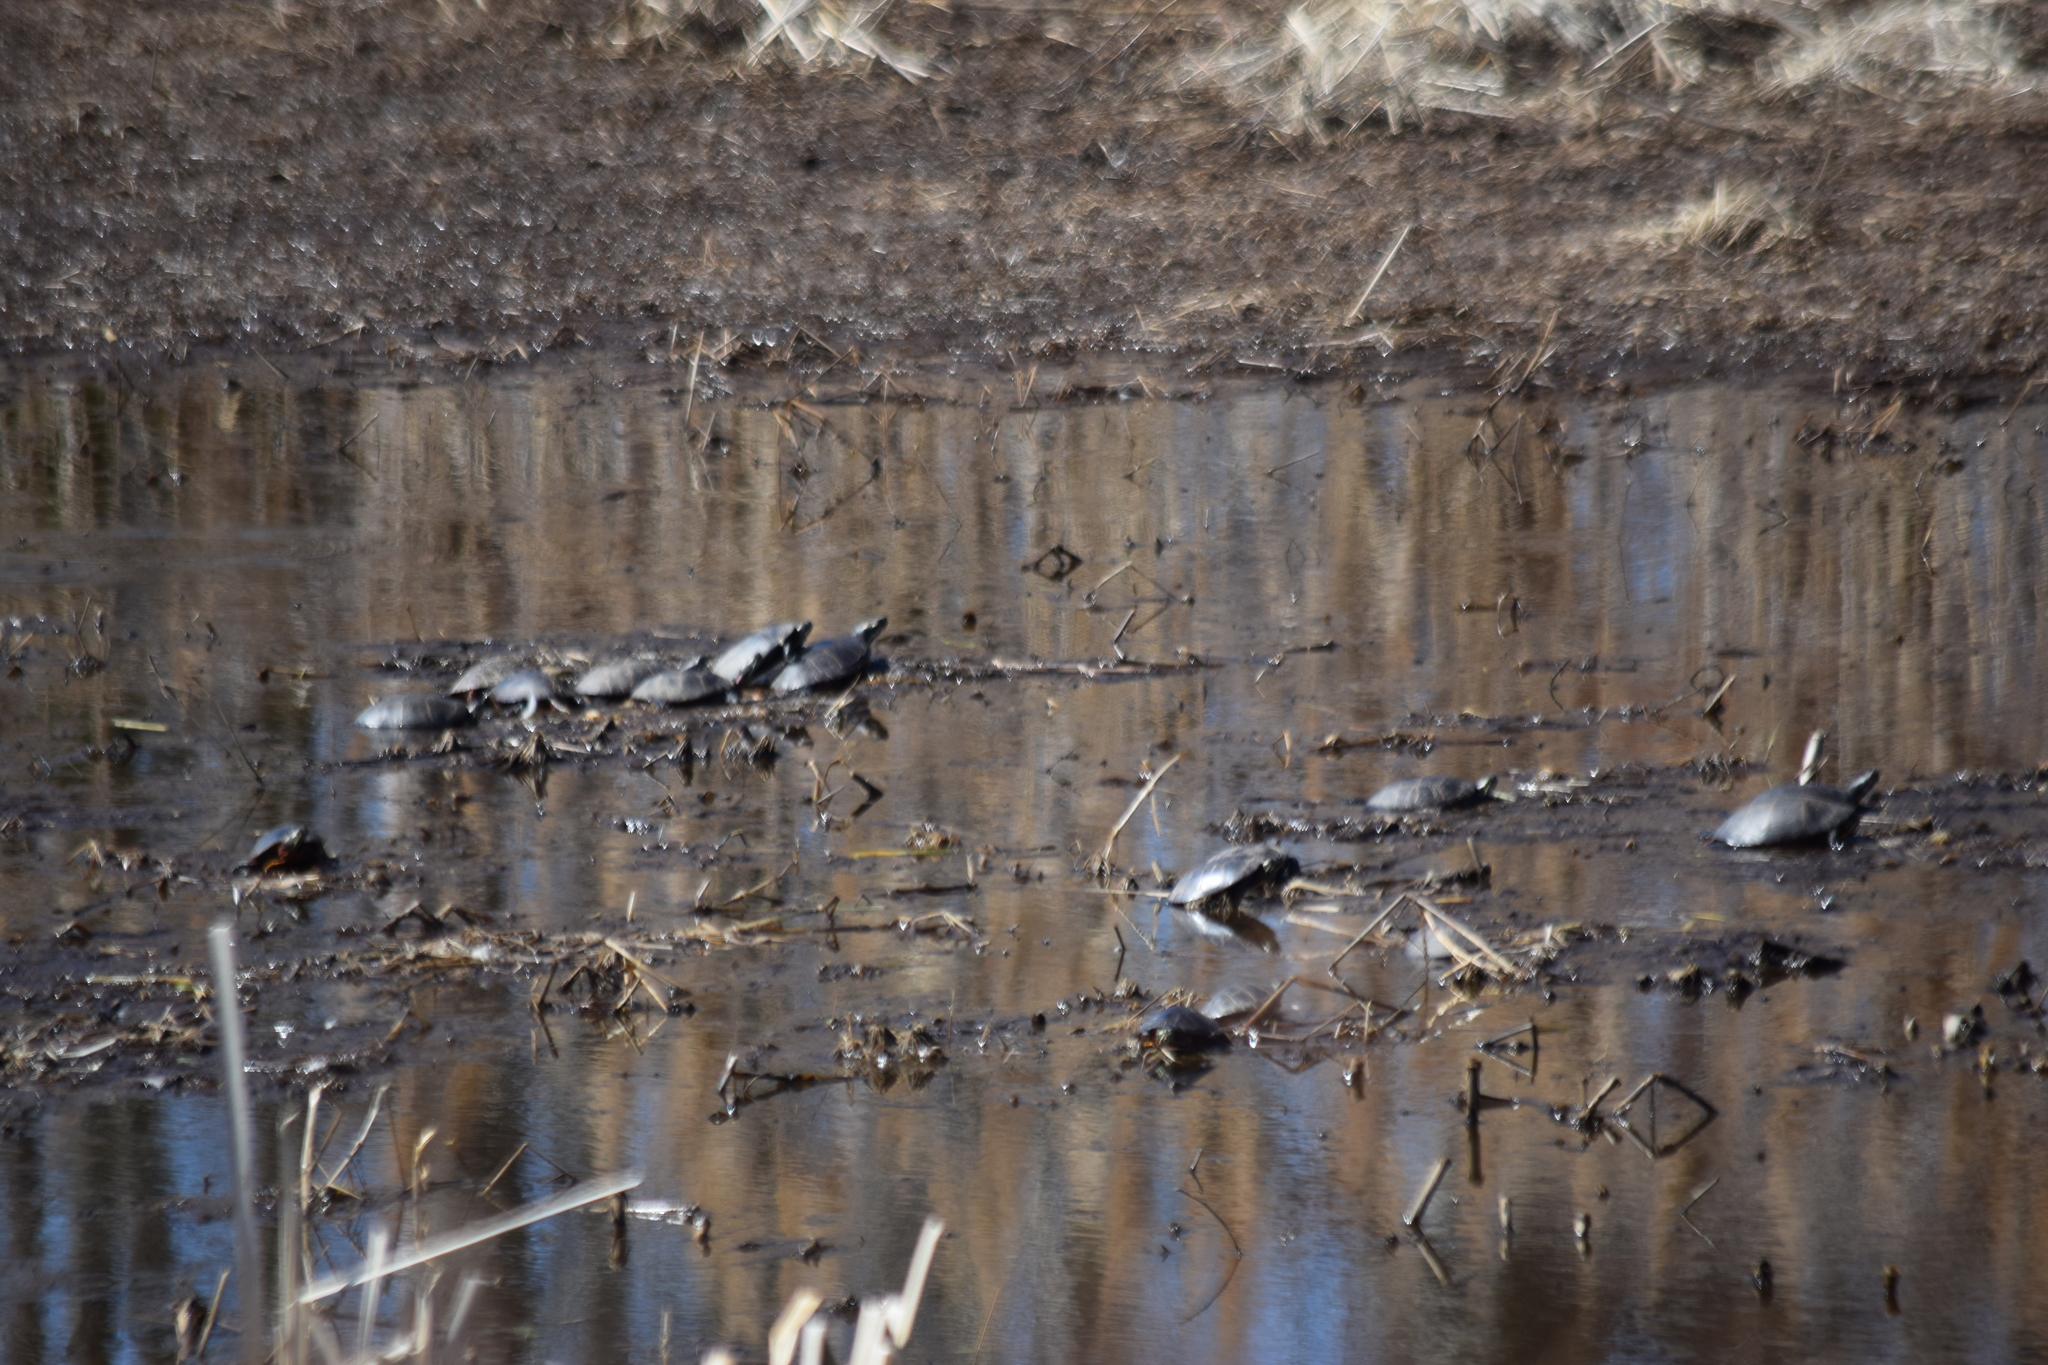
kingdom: Animalia
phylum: Chordata
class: Testudines
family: Emydidae
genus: Chrysemys
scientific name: Chrysemys picta
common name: Painted turtle
